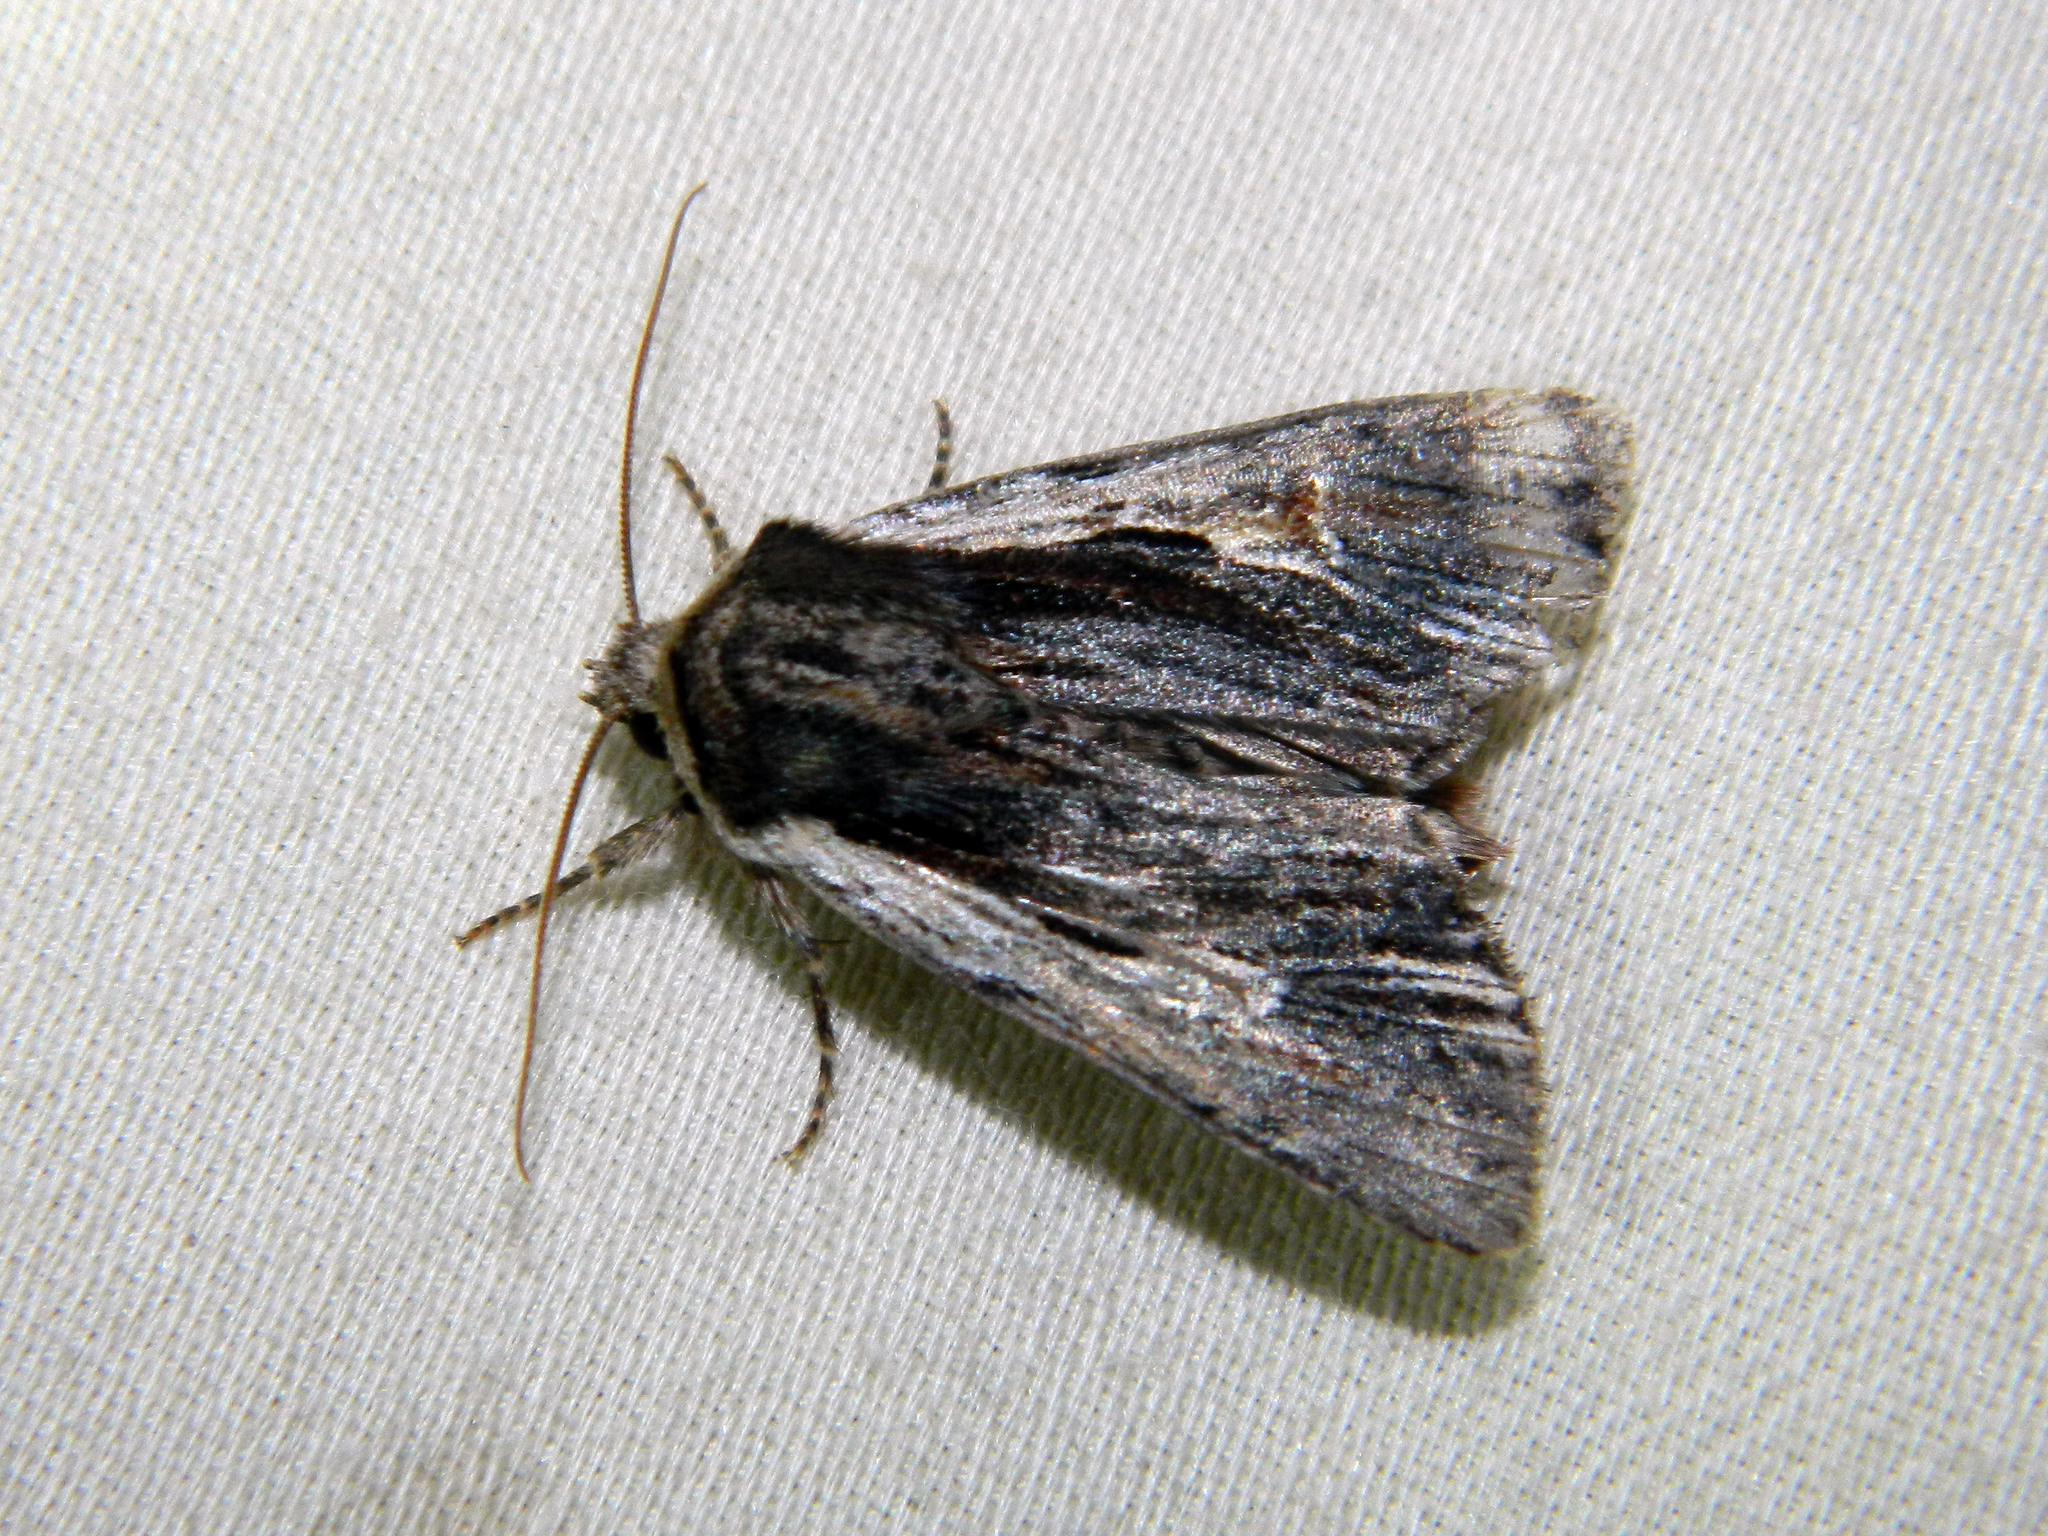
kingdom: Animalia
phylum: Arthropoda
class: Insecta
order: Lepidoptera
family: Noctuidae
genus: Achatia
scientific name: Achatia evicta
